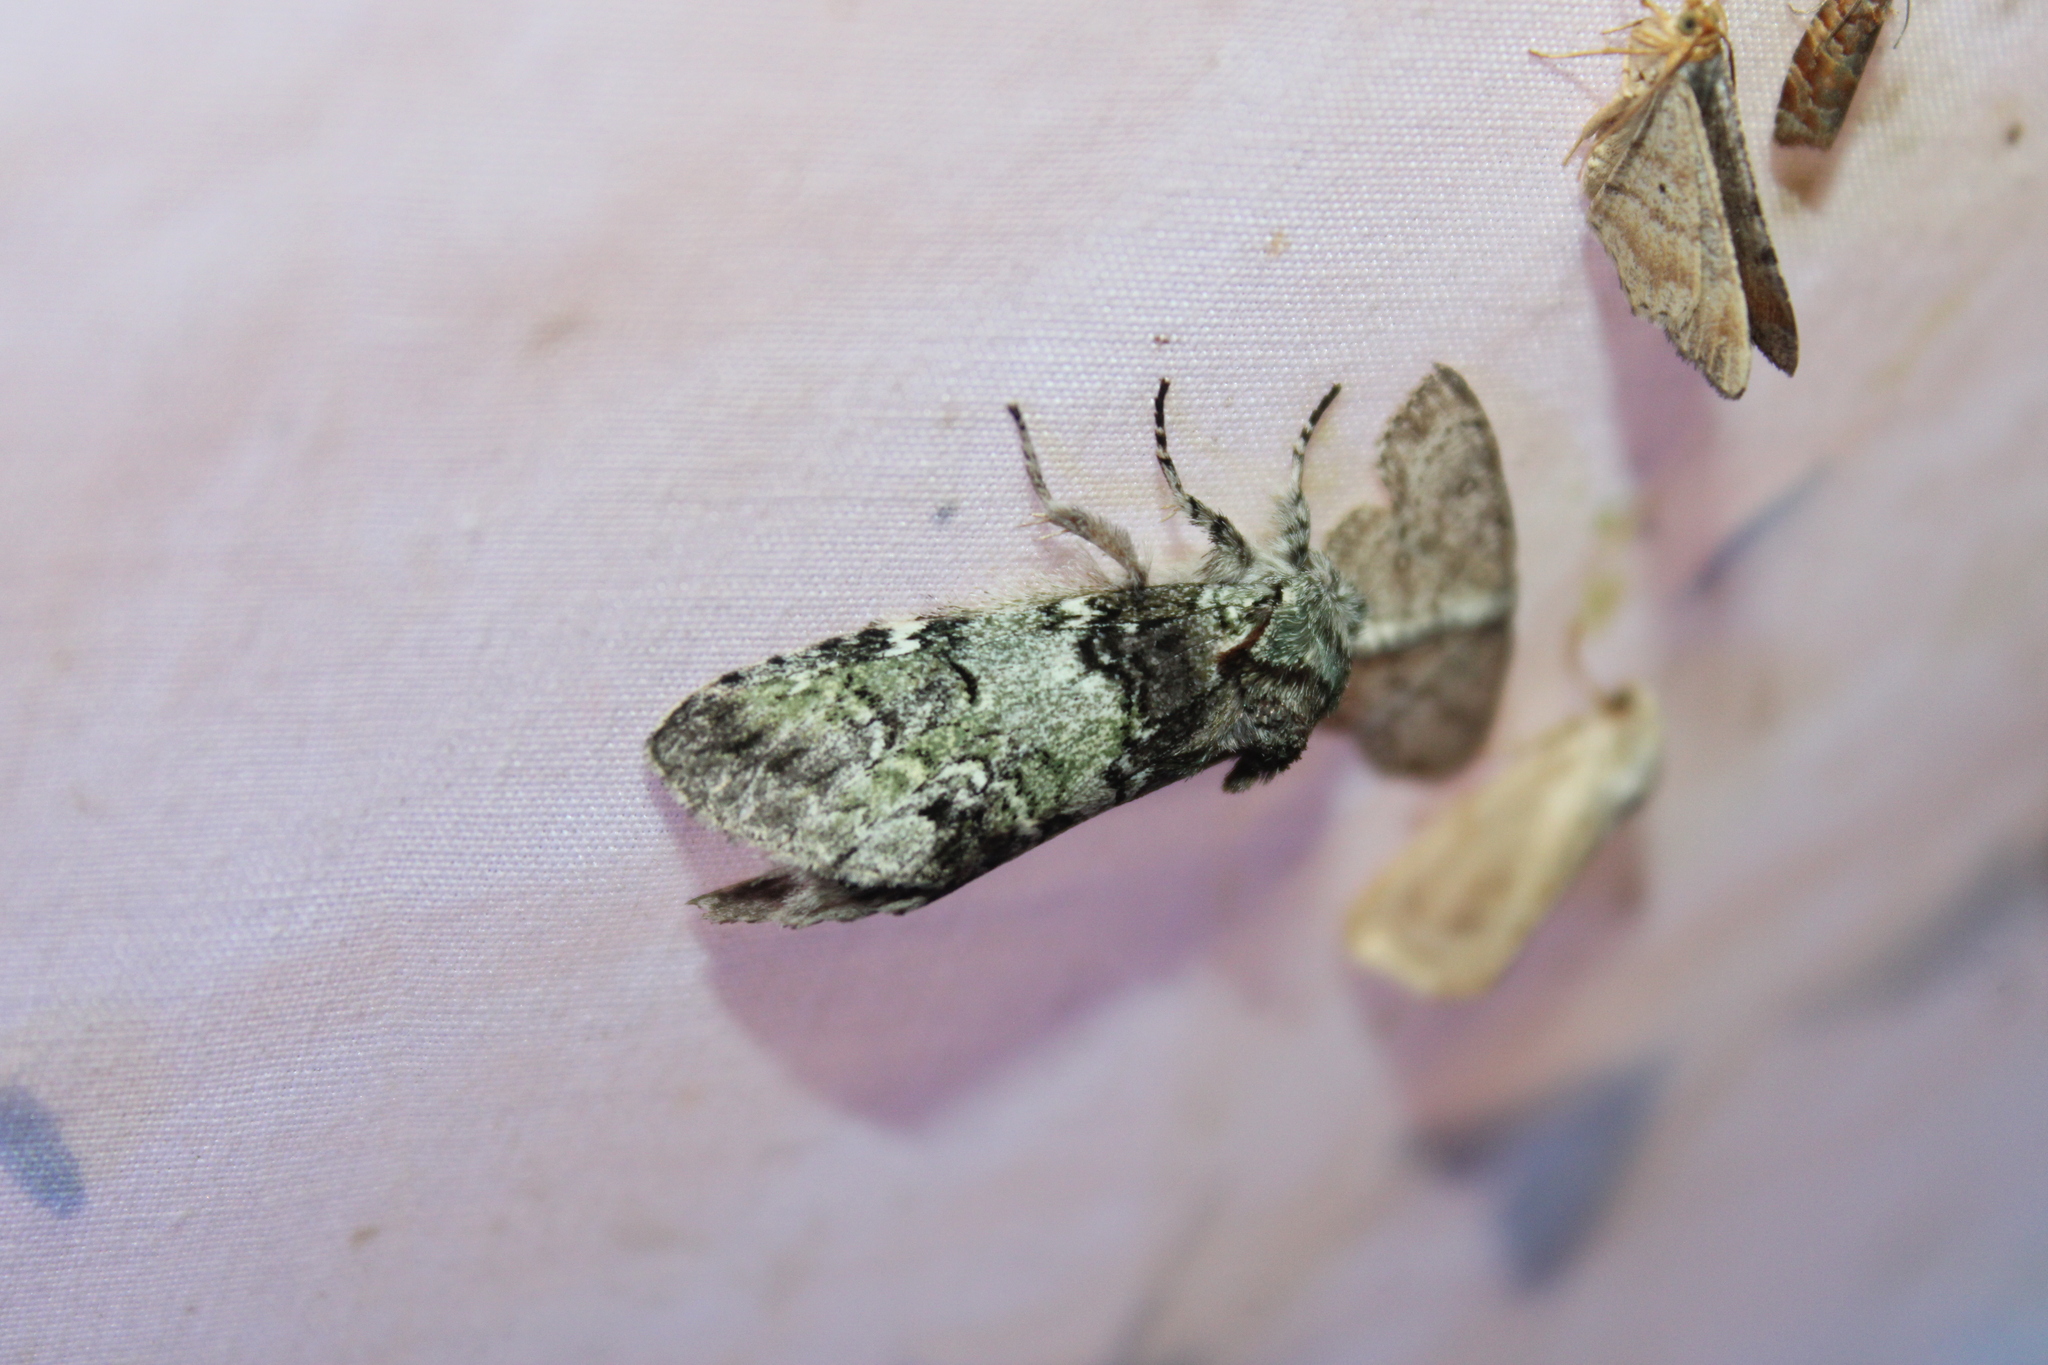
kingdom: Animalia
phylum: Arthropoda
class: Insecta
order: Lepidoptera
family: Notodontidae
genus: Macrurocampa
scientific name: Macrurocampa marthesia
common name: Mottled prominent
